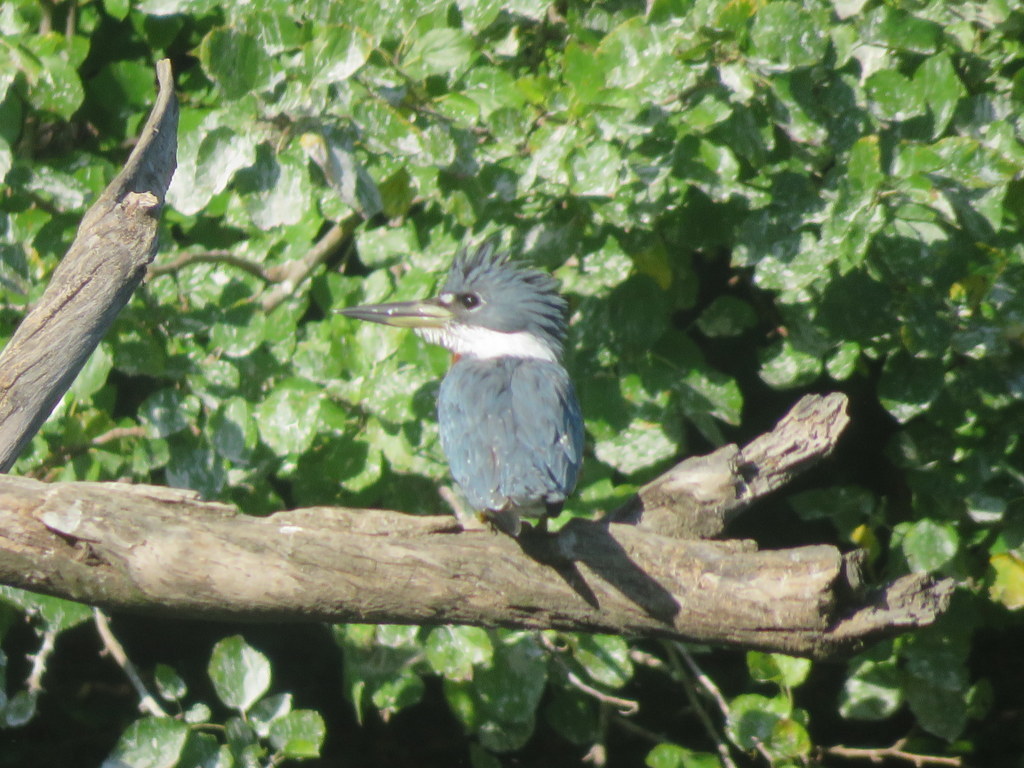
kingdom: Animalia
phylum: Chordata
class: Aves
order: Coraciiformes
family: Alcedinidae
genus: Megaceryle
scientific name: Megaceryle torquata
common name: Ringed kingfisher
